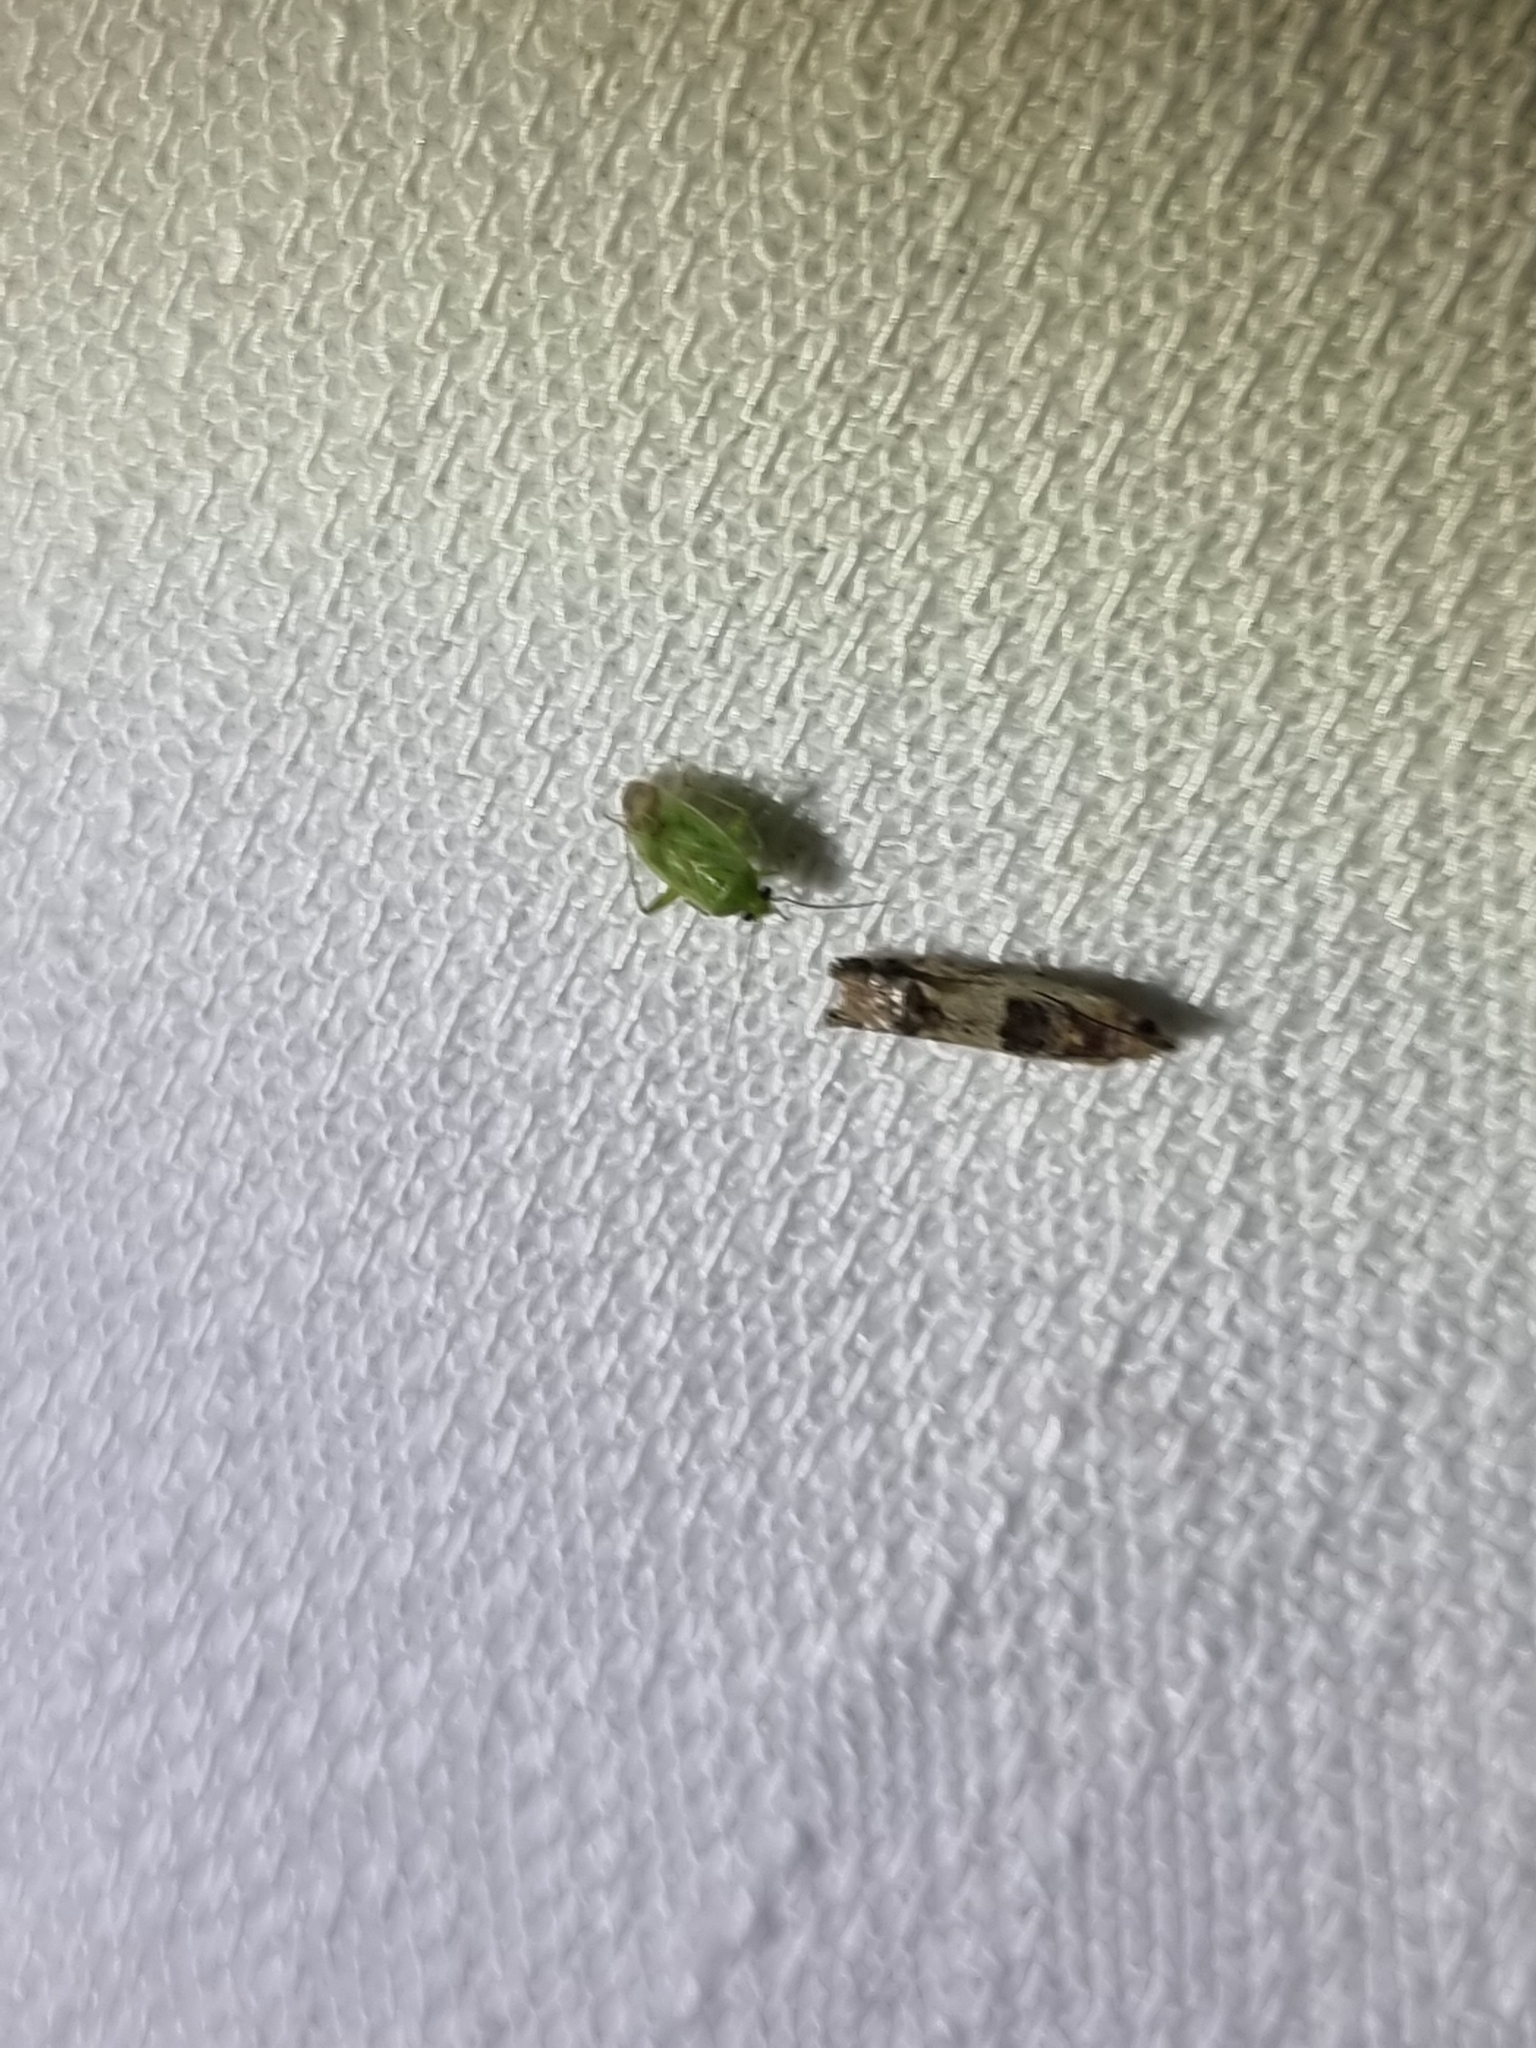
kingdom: Animalia
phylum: Arthropoda
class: Insecta
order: Lepidoptera
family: Tortricidae
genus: Crocidosema
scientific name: Crocidosema plebejana
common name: Southern bell
